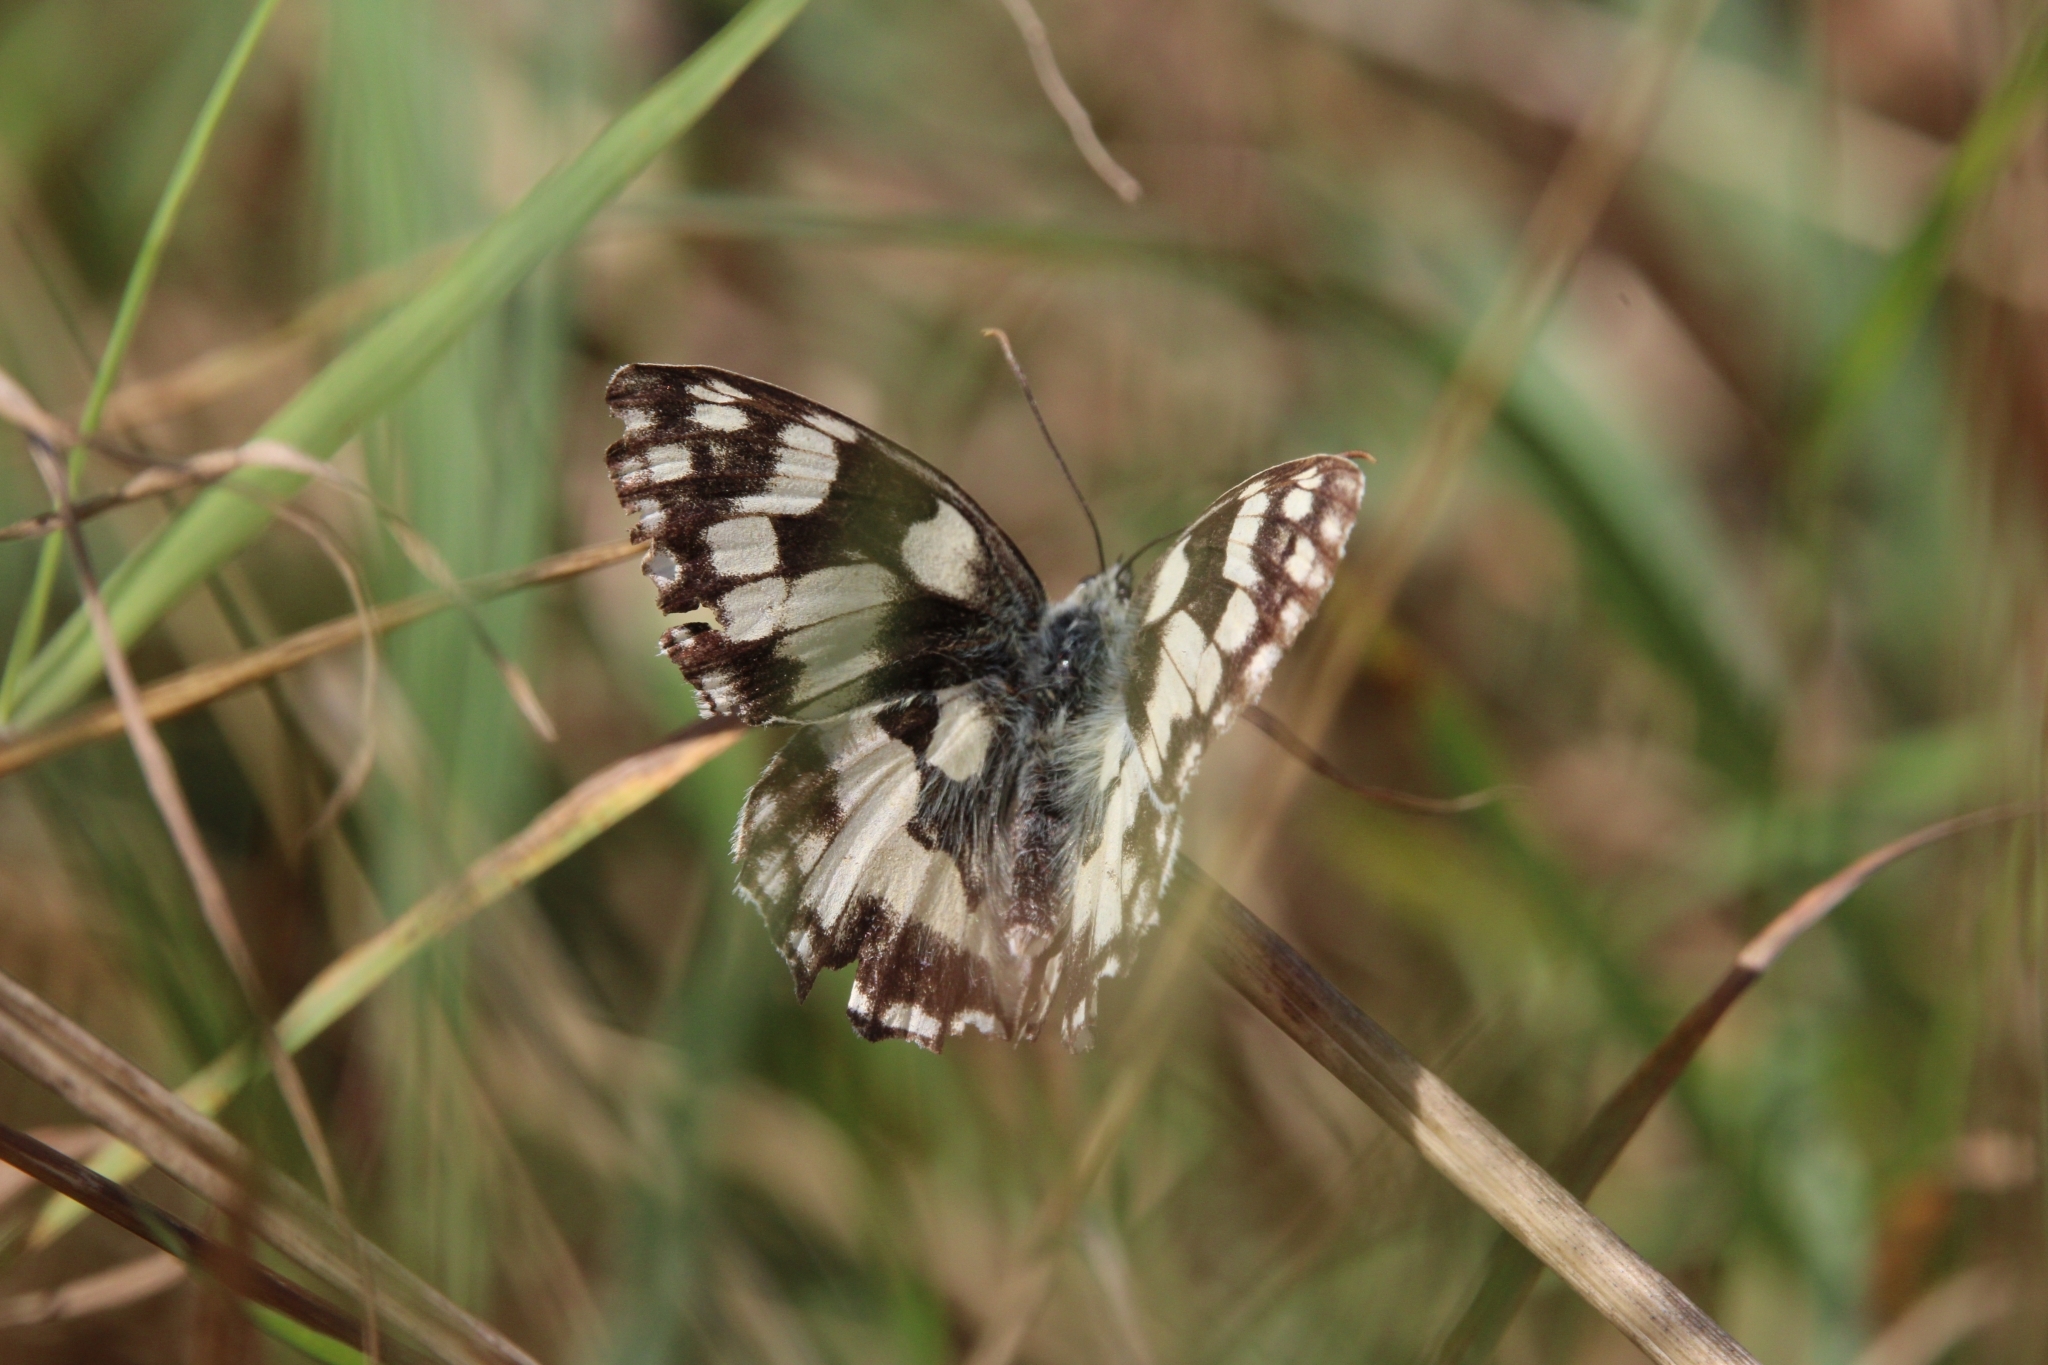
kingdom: Animalia
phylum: Arthropoda
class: Insecta
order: Lepidoptera
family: Nymphalidae
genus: Melanargia
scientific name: Melanargia galathea
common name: Marbled white
